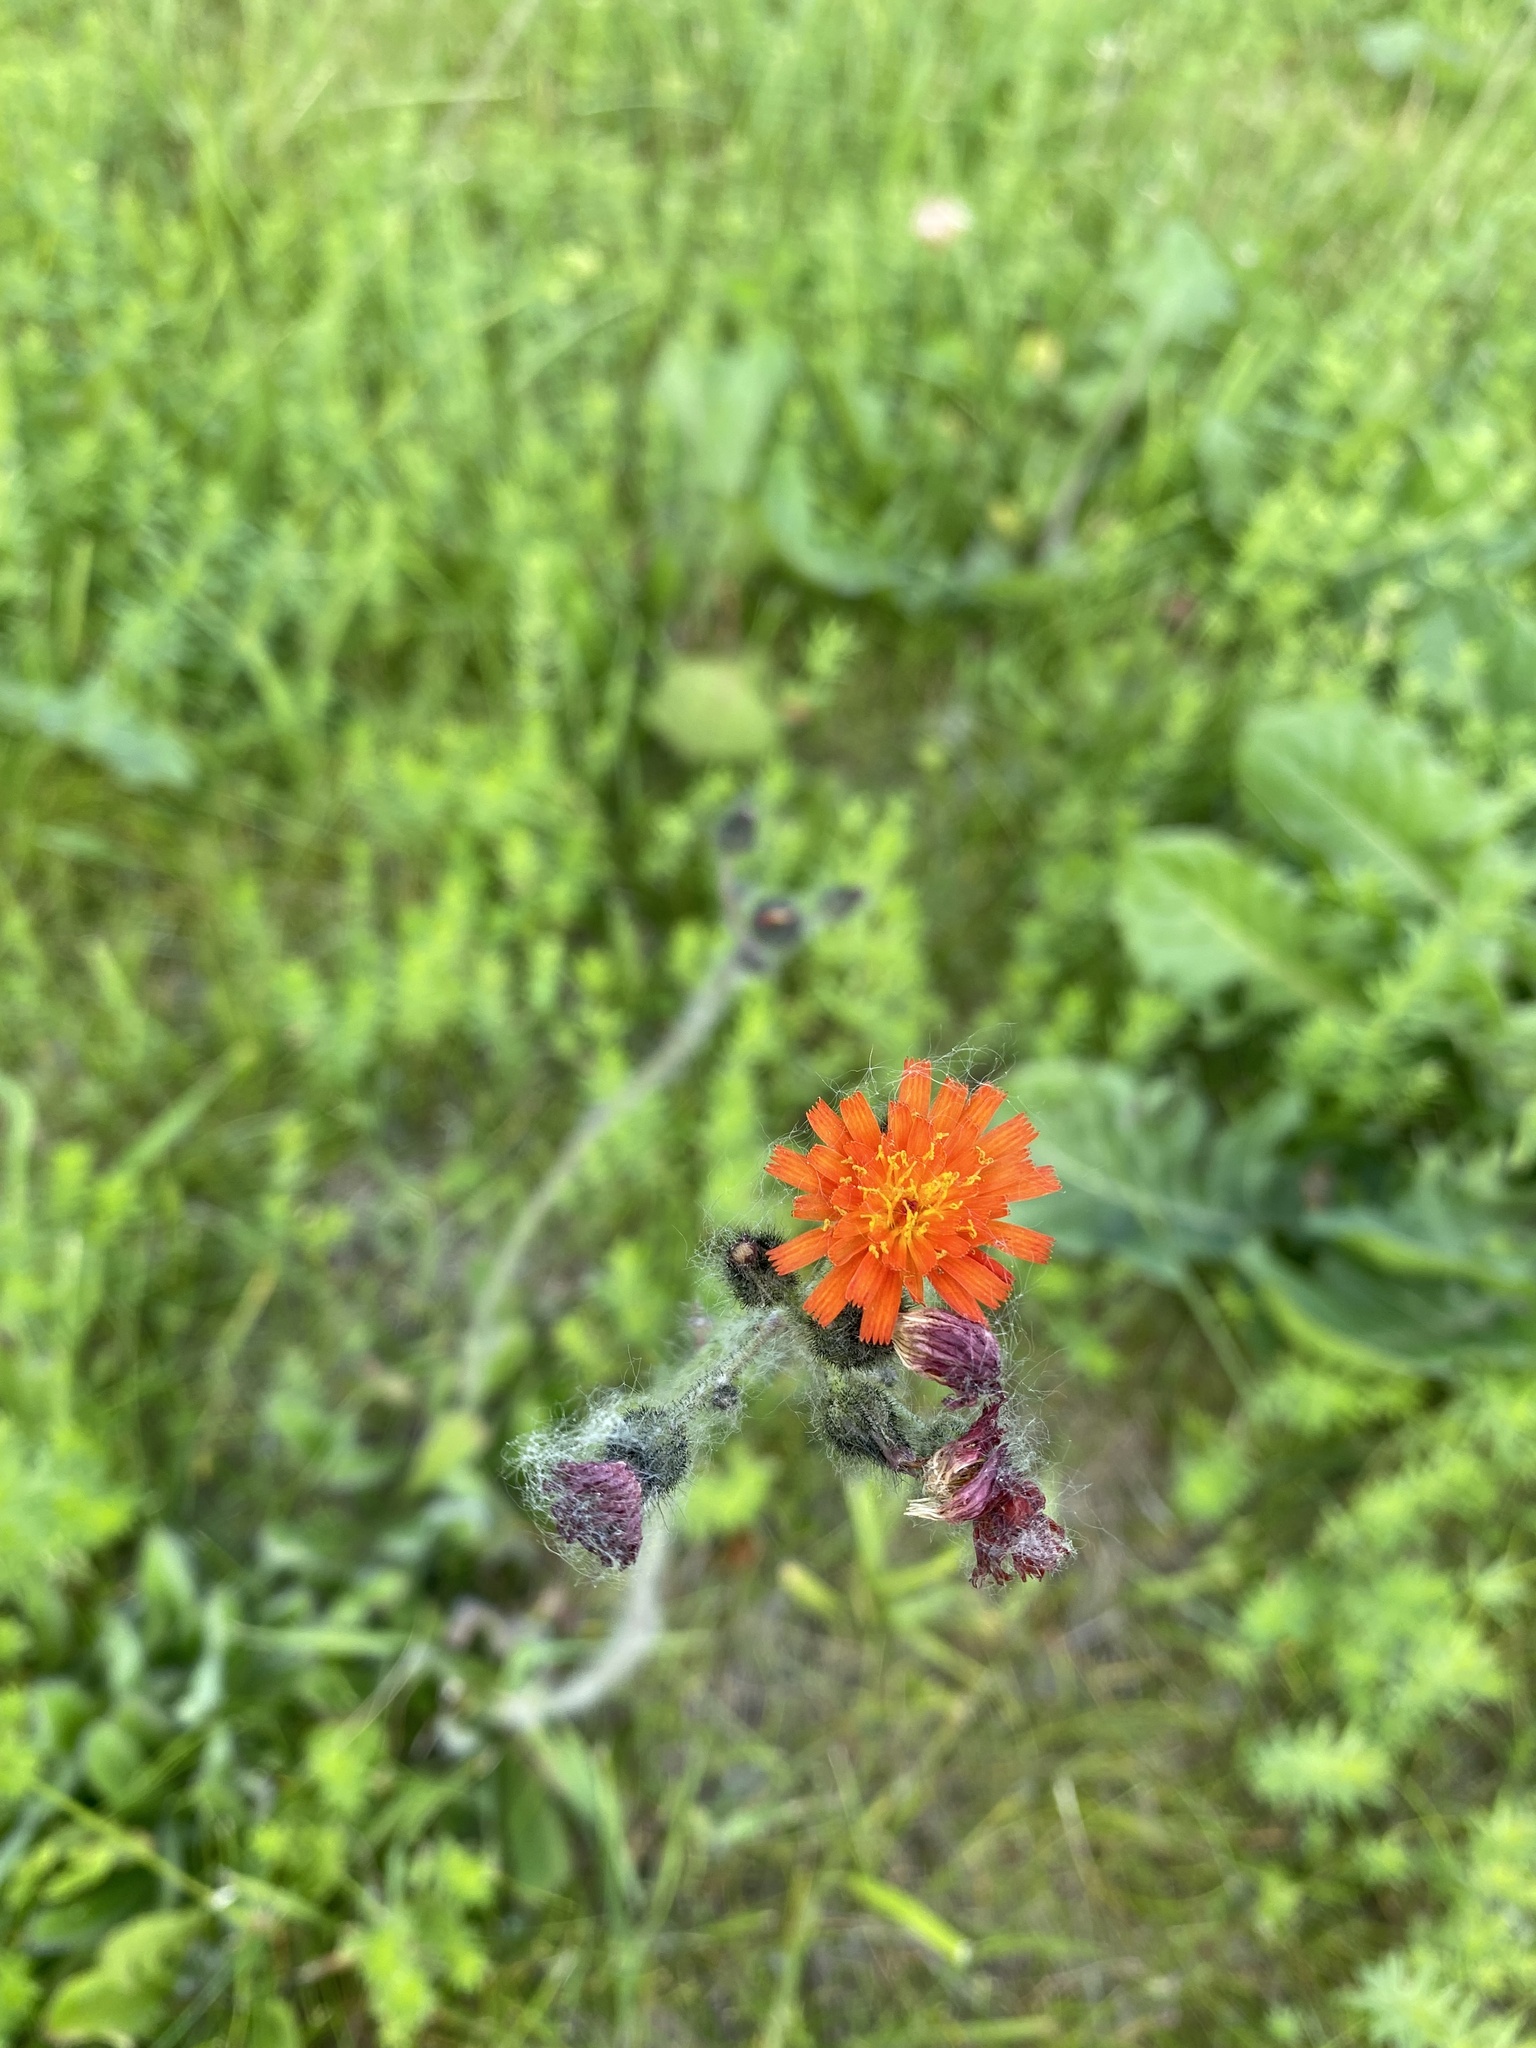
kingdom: Plantae
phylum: Tracheophyta
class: Magnoliopsida
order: Asterales
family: Asteraceae
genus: Pilosella
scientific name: Pilosella aurantiaca
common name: Fox-and-cubs
